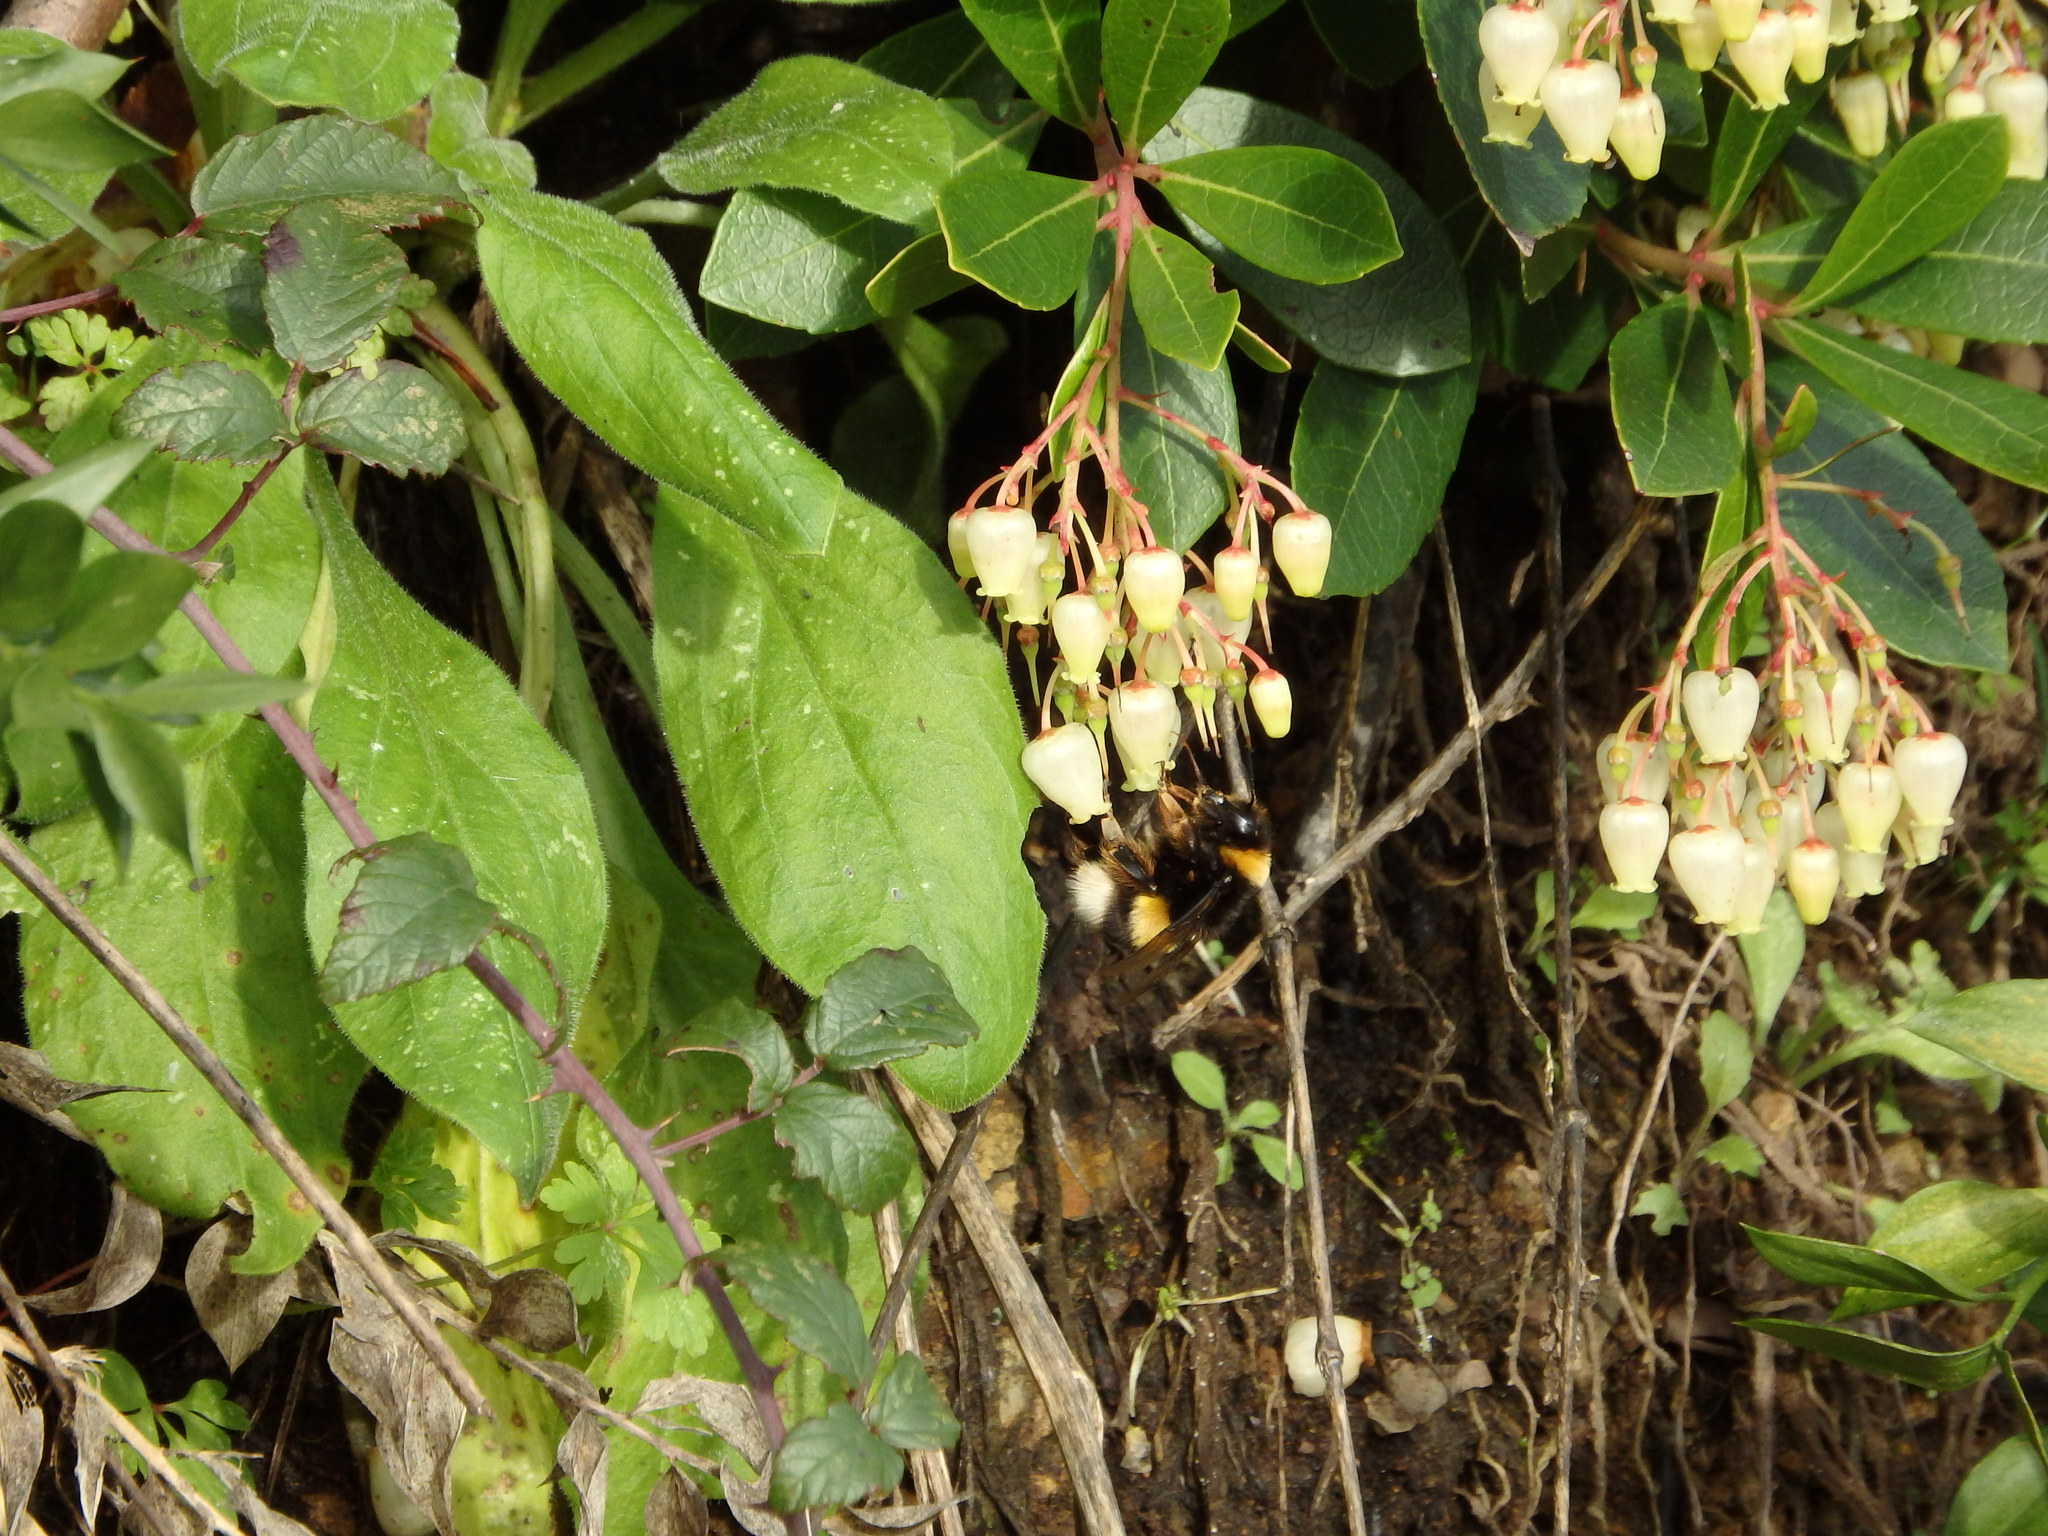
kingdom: Animalia
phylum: Arthropoda
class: Insecta
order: Hymenoptera
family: Apidae
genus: Bombus
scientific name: Bombus
